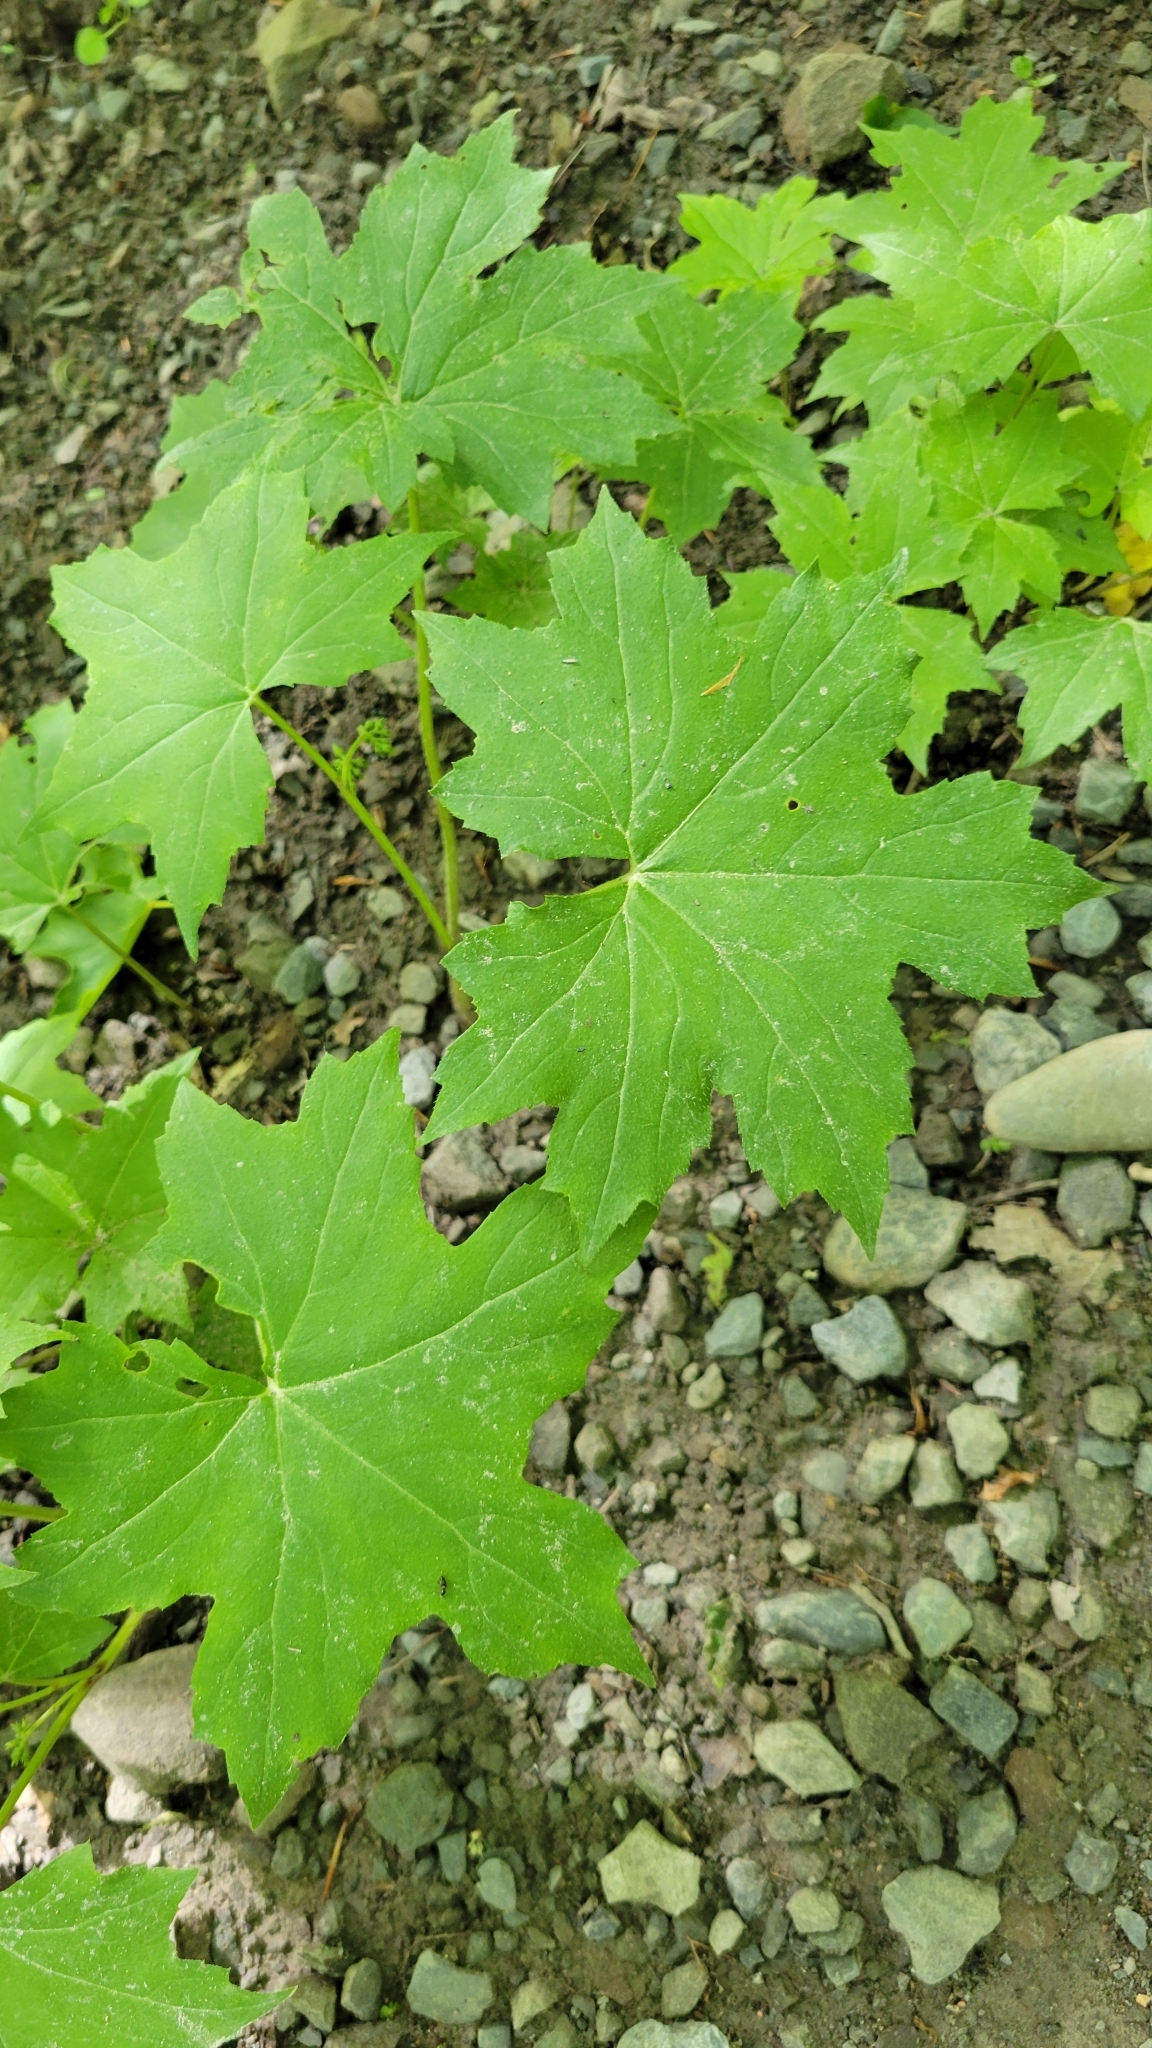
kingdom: Plantae
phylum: Tracheophyta
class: Magnoliopsida
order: Boraginales
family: Hydrophyllaceae
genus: Hydrophyllum
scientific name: Hydrophyllum canadense
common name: Canada waterleaf
